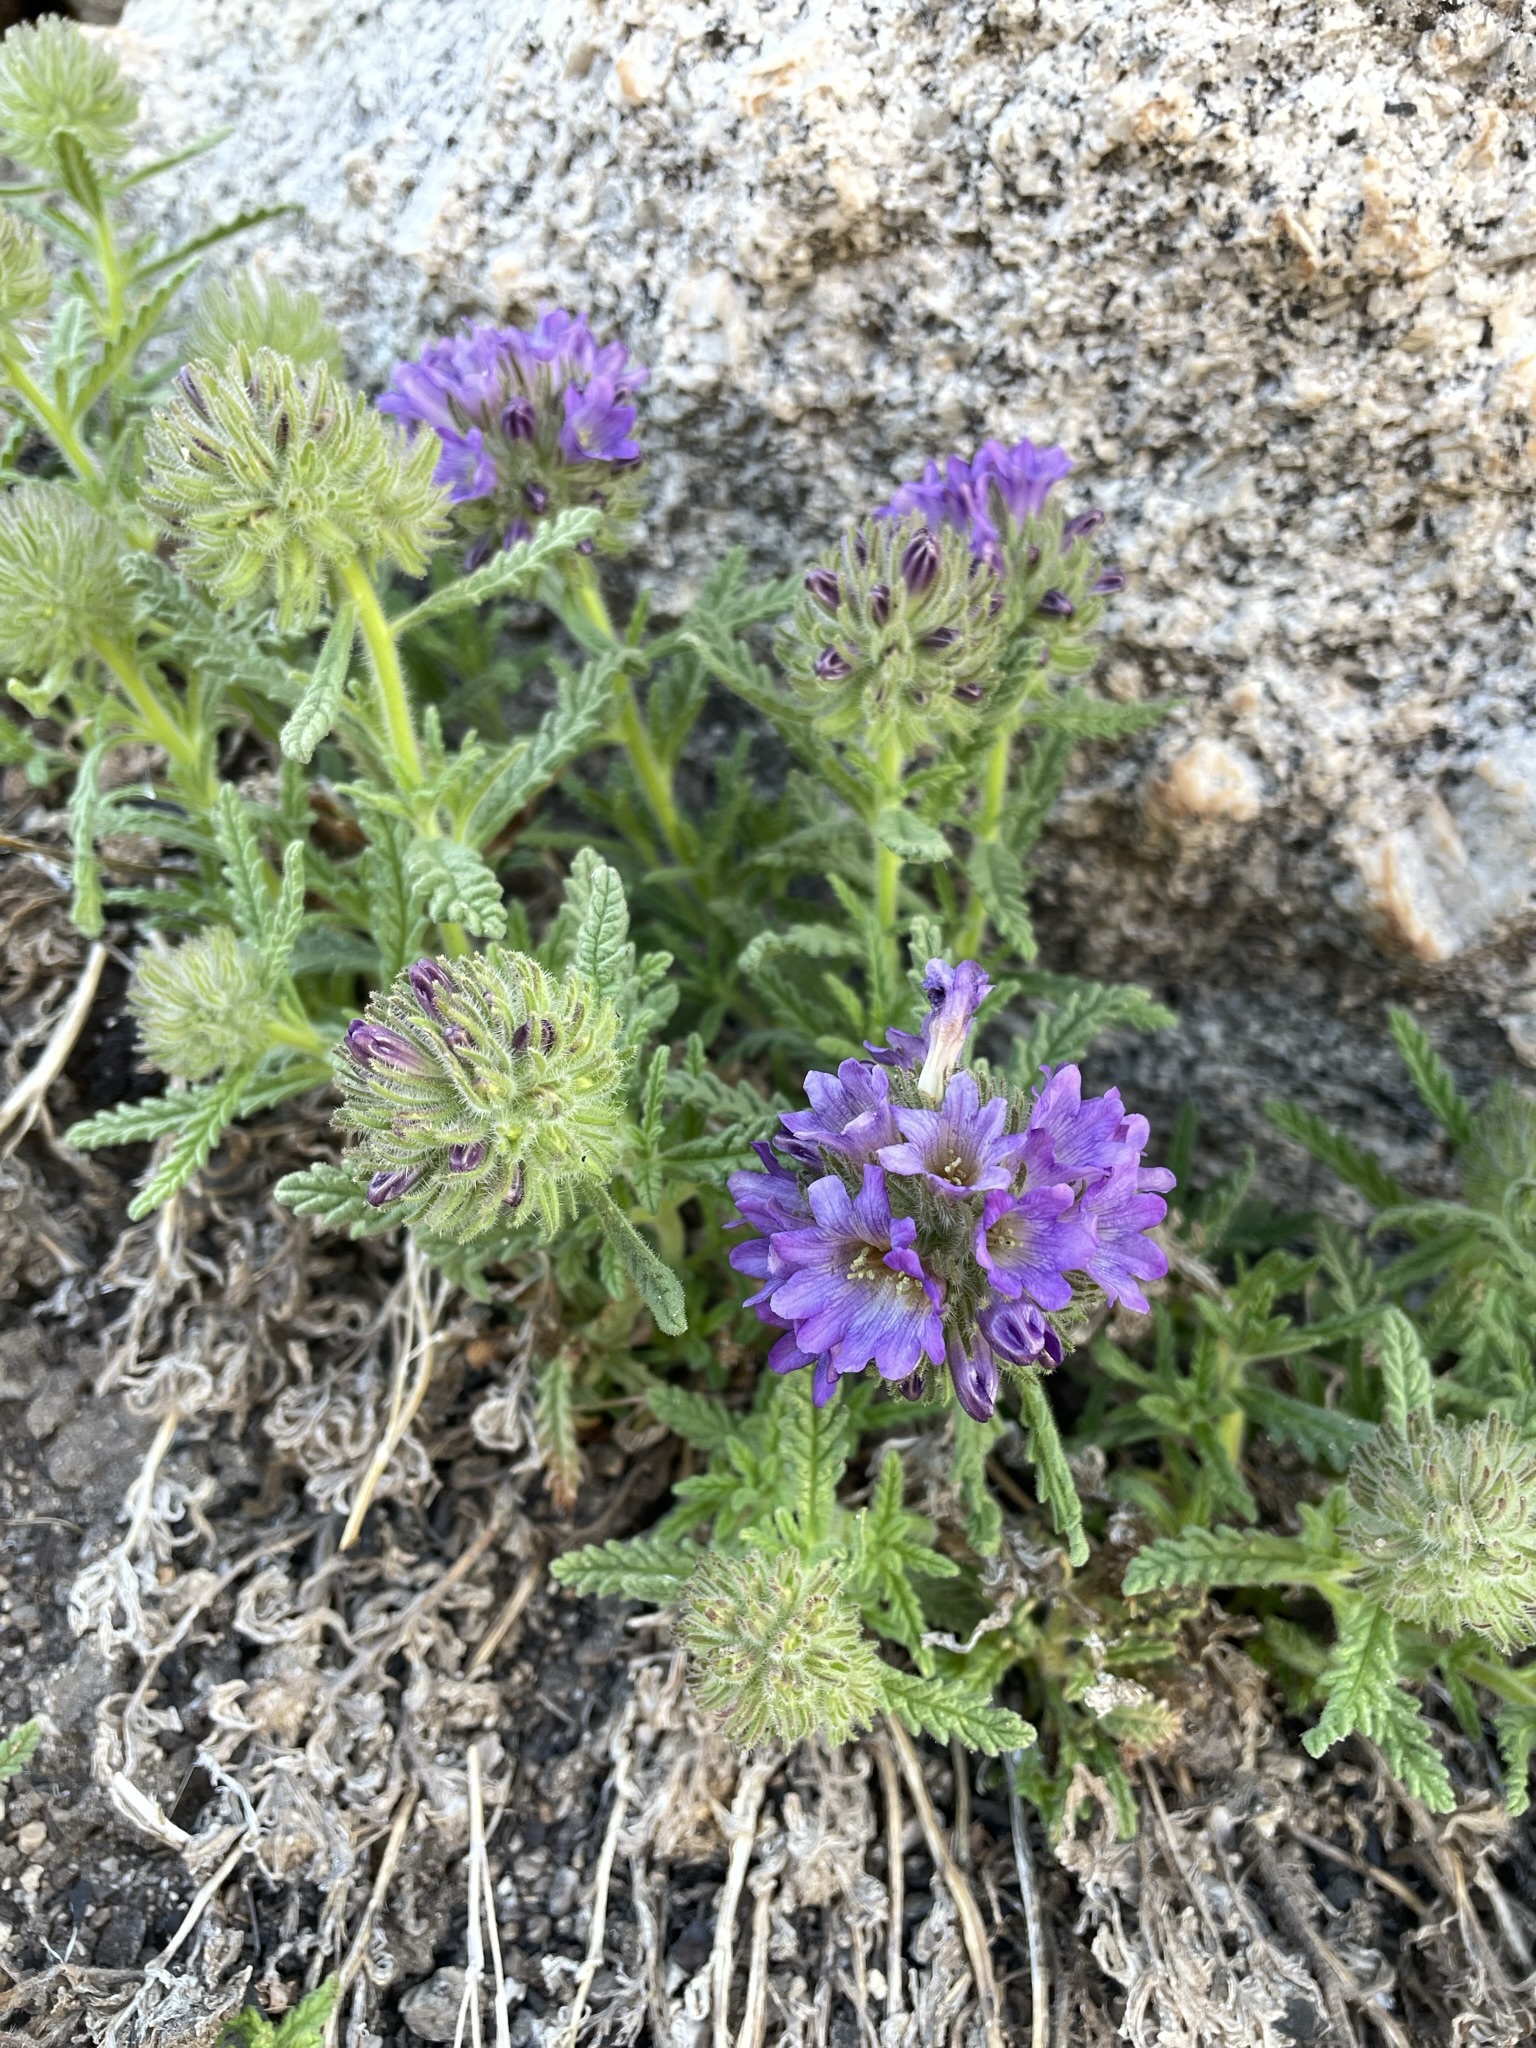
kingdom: Plantae
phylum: Tracheophyta
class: Magnoliopsida
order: Boraginales
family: Namaceae
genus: Nama
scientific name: Nama rothrockii
